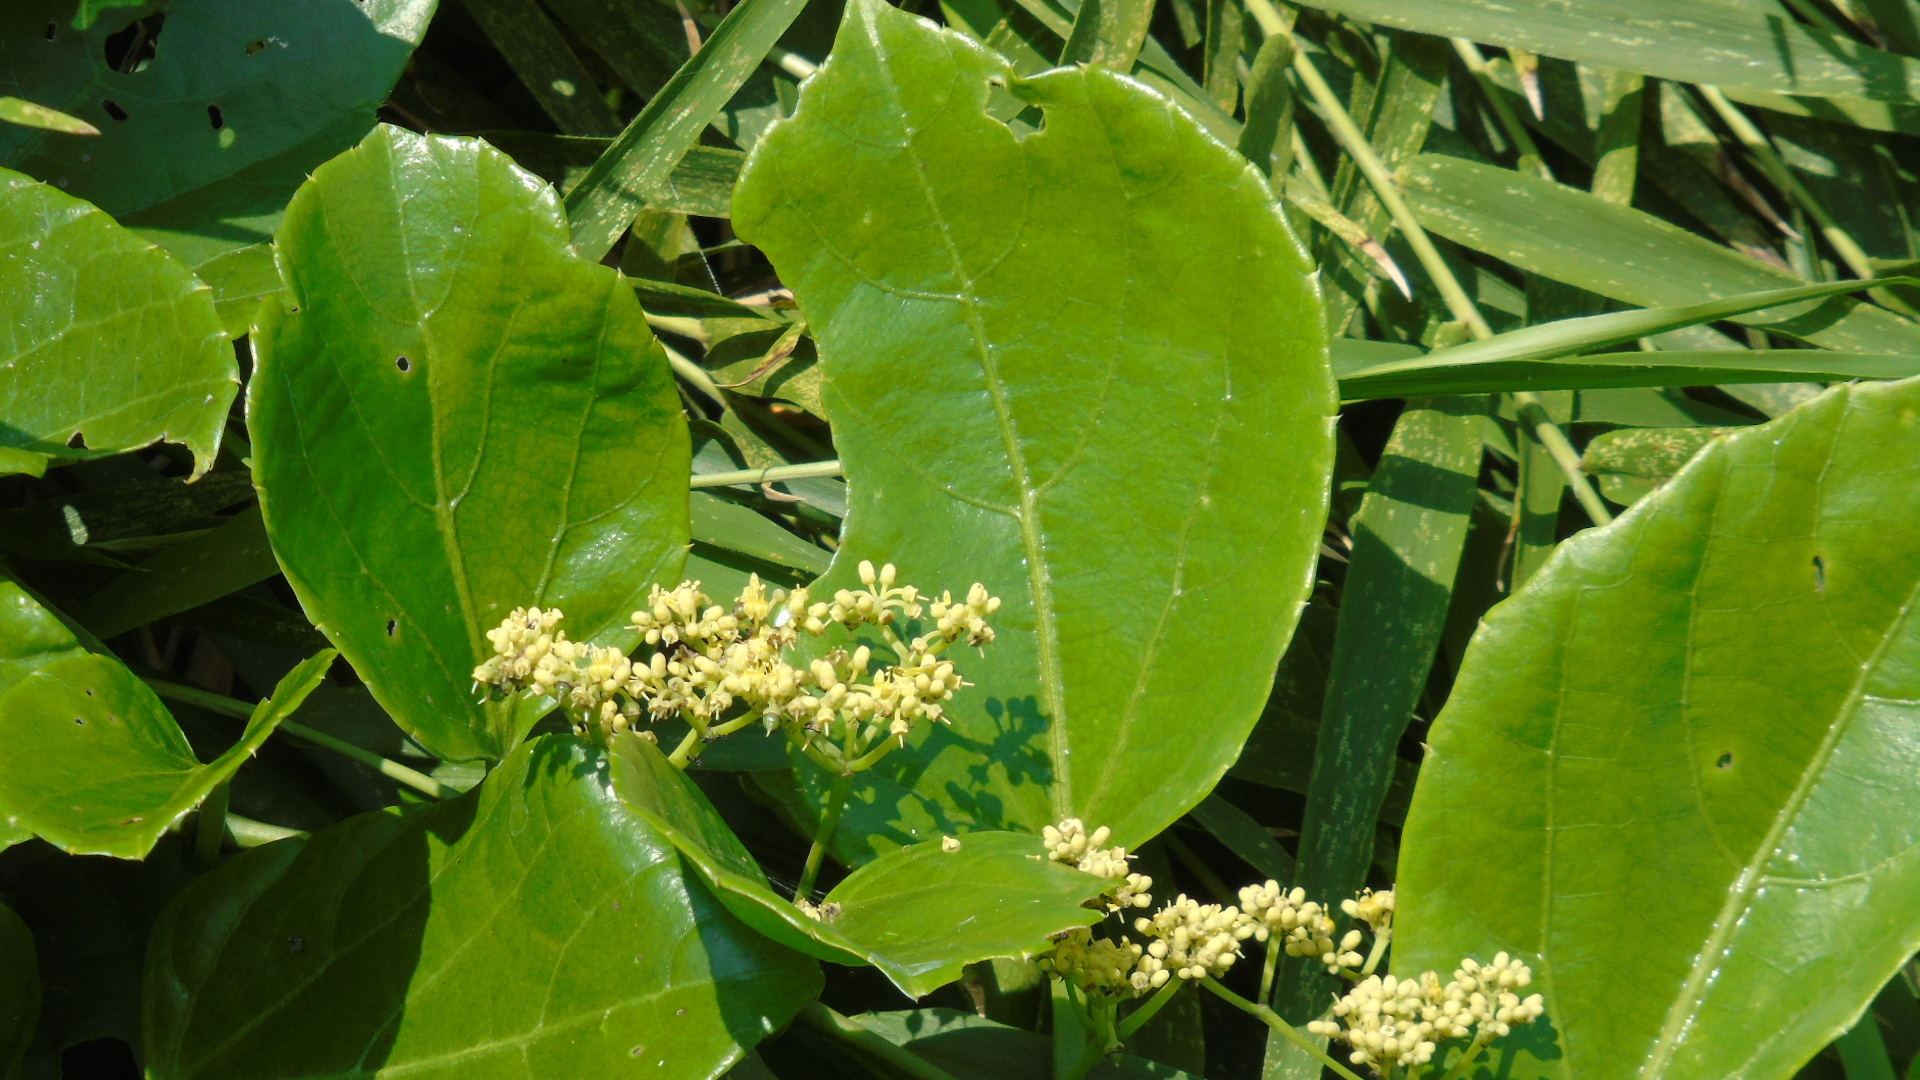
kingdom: Plantae
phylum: Tracheophyta
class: Magnoliopsida
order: Vitales
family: Vitaceae
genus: Cissus
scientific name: Cissus verticillata
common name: Princess vine
